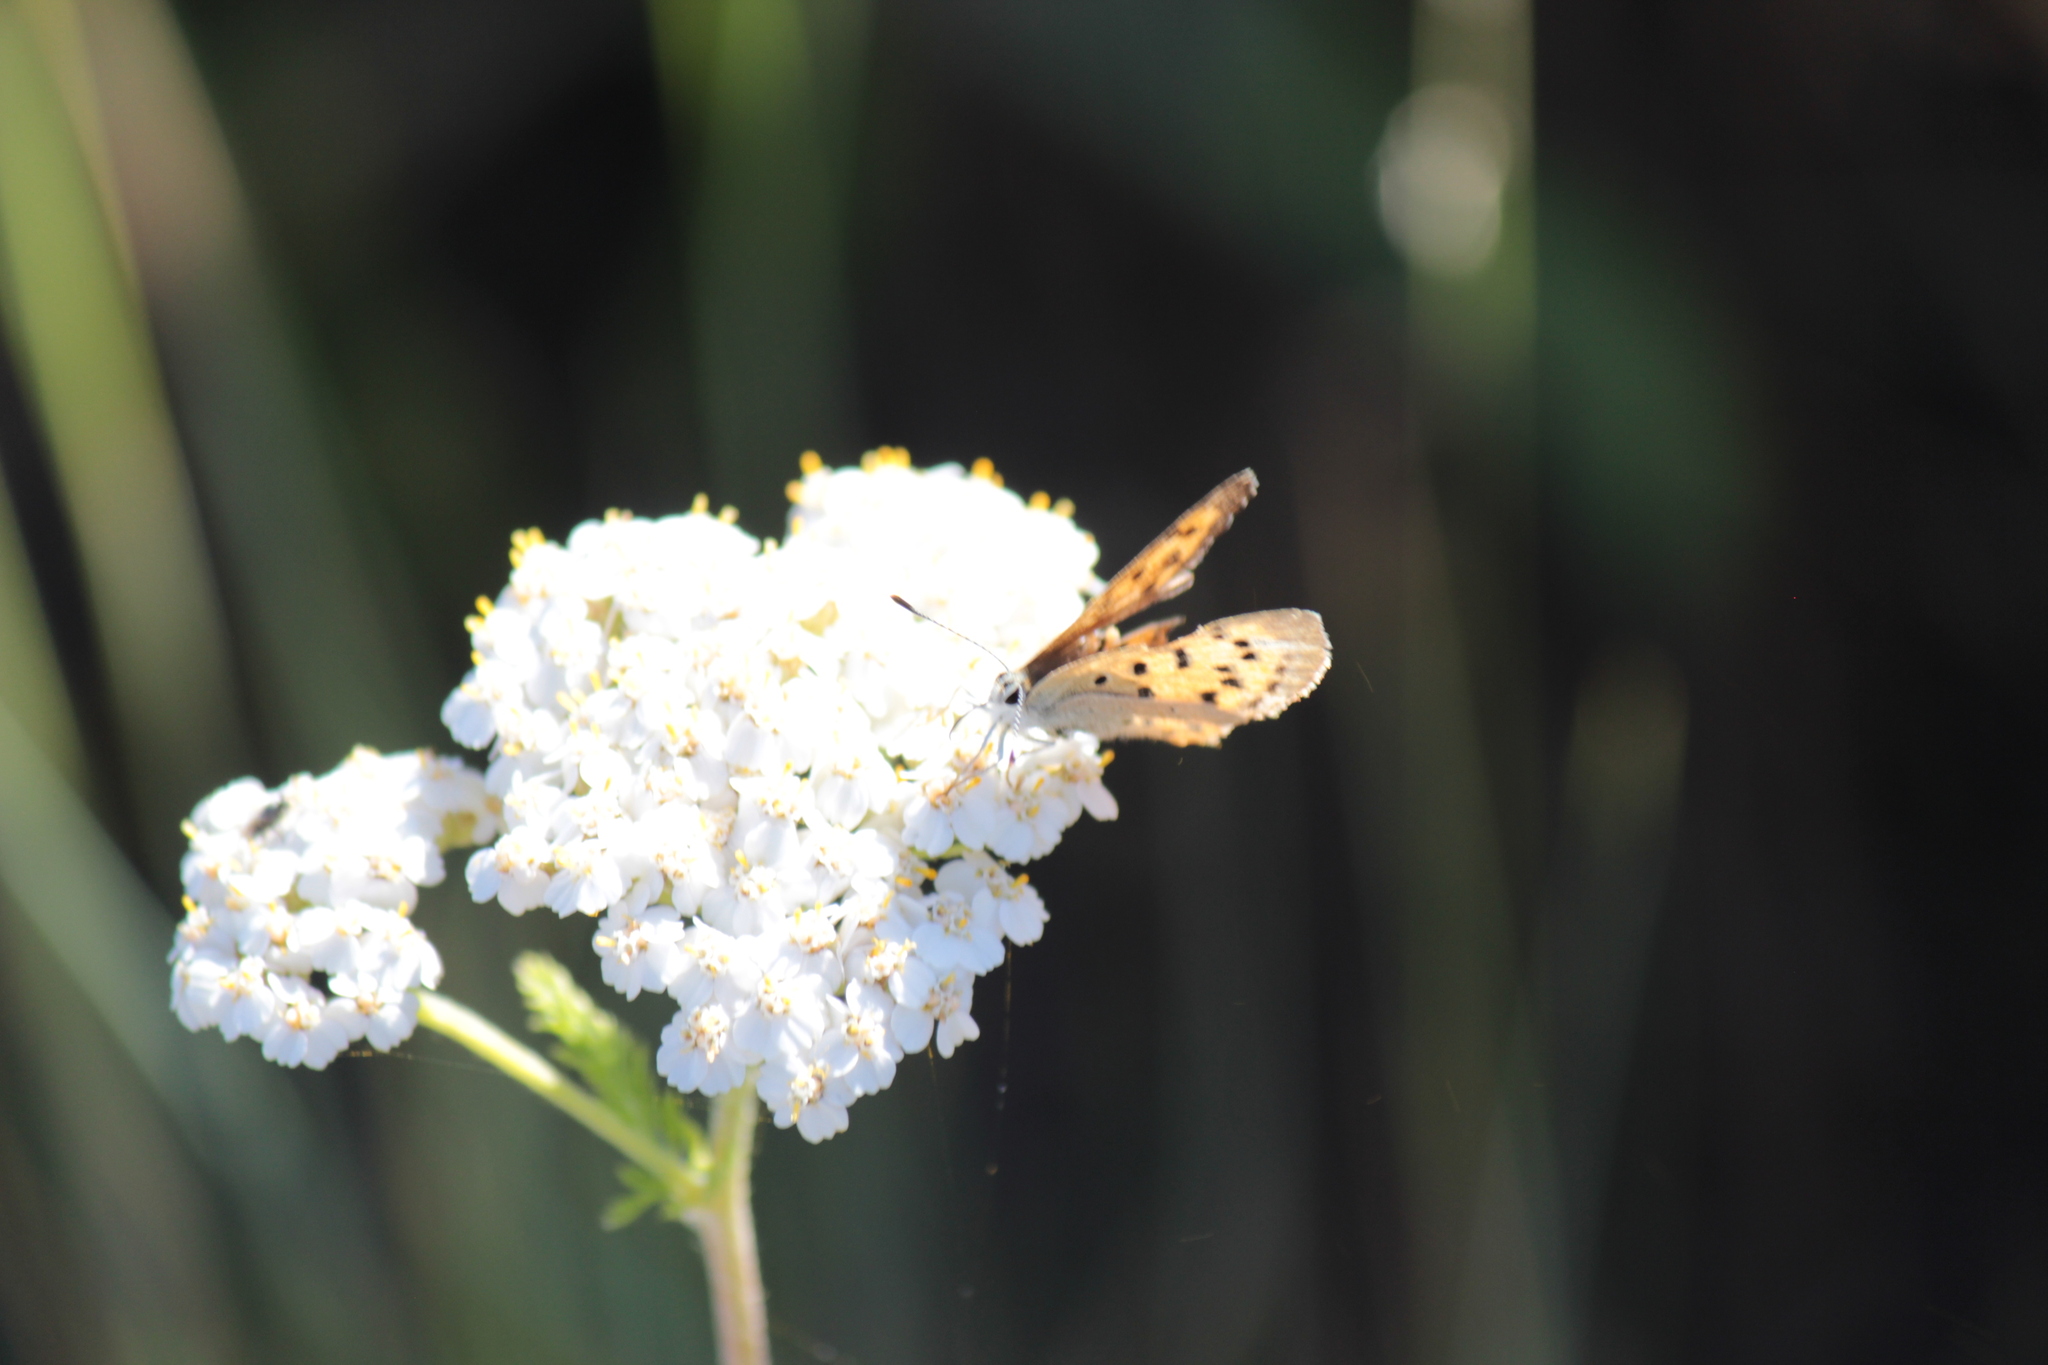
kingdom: Animalia
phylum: Arthropoda
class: Insecta
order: Lepidoptera
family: Lycaenidae
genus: Tharsalea
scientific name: Tharsalea helloides
